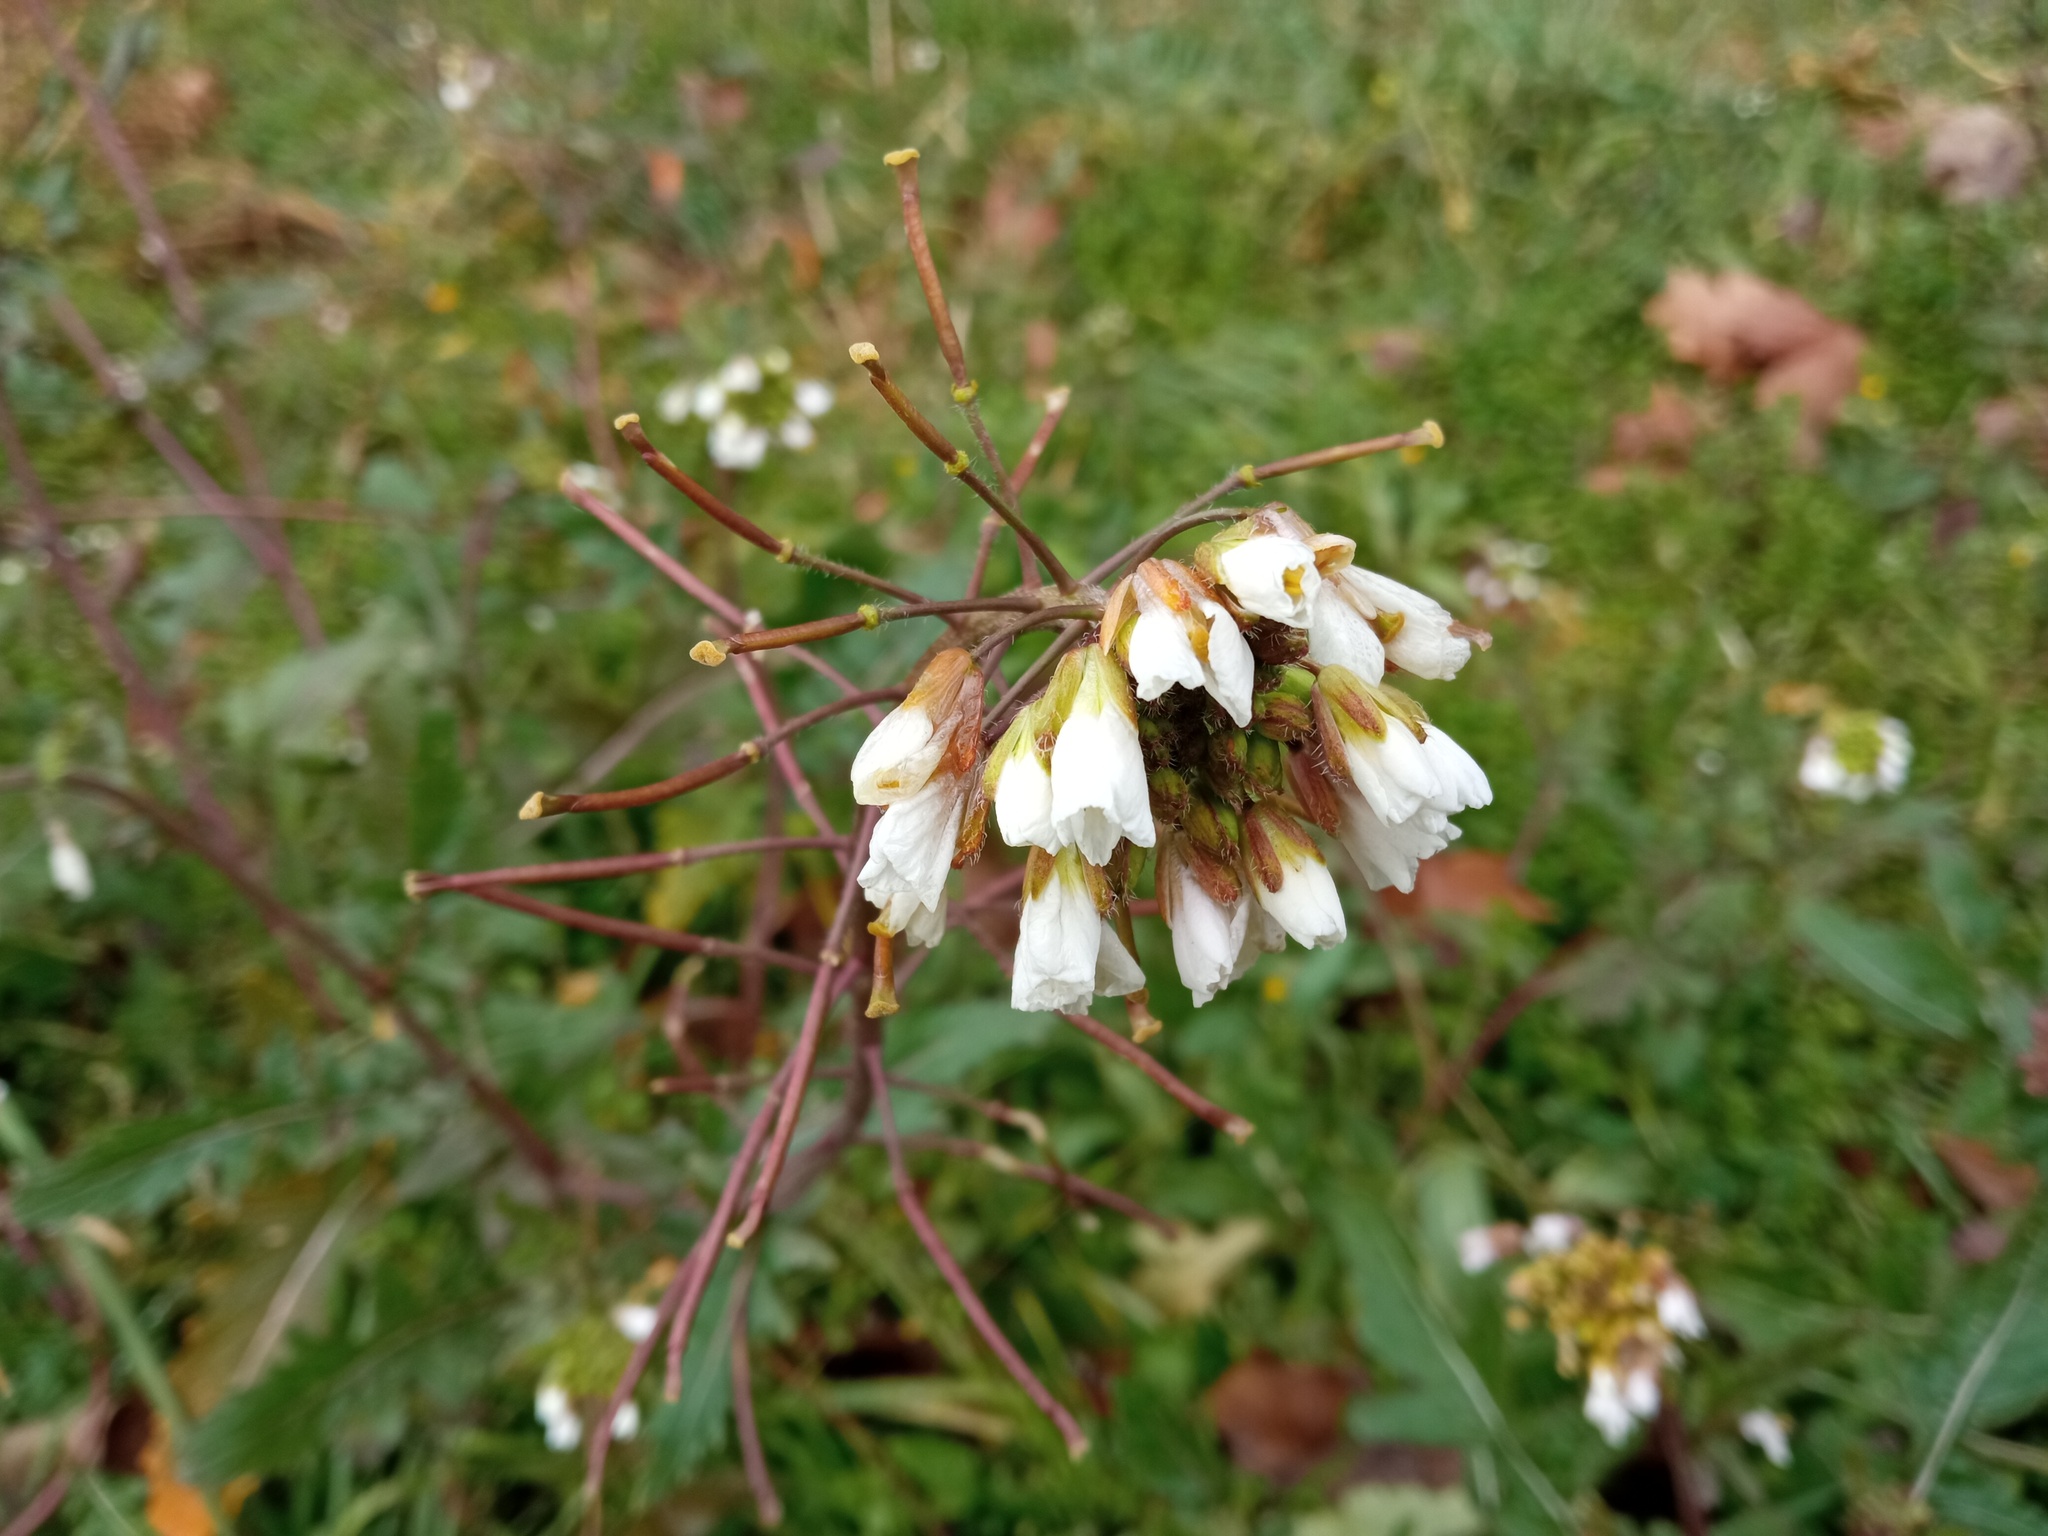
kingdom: Plantae
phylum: Tracheophyta
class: Magnoliopsida
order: Brassicales
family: Brassicaceae
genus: Diplotaxis
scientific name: Diplotaxis erucoides
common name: White rocket
